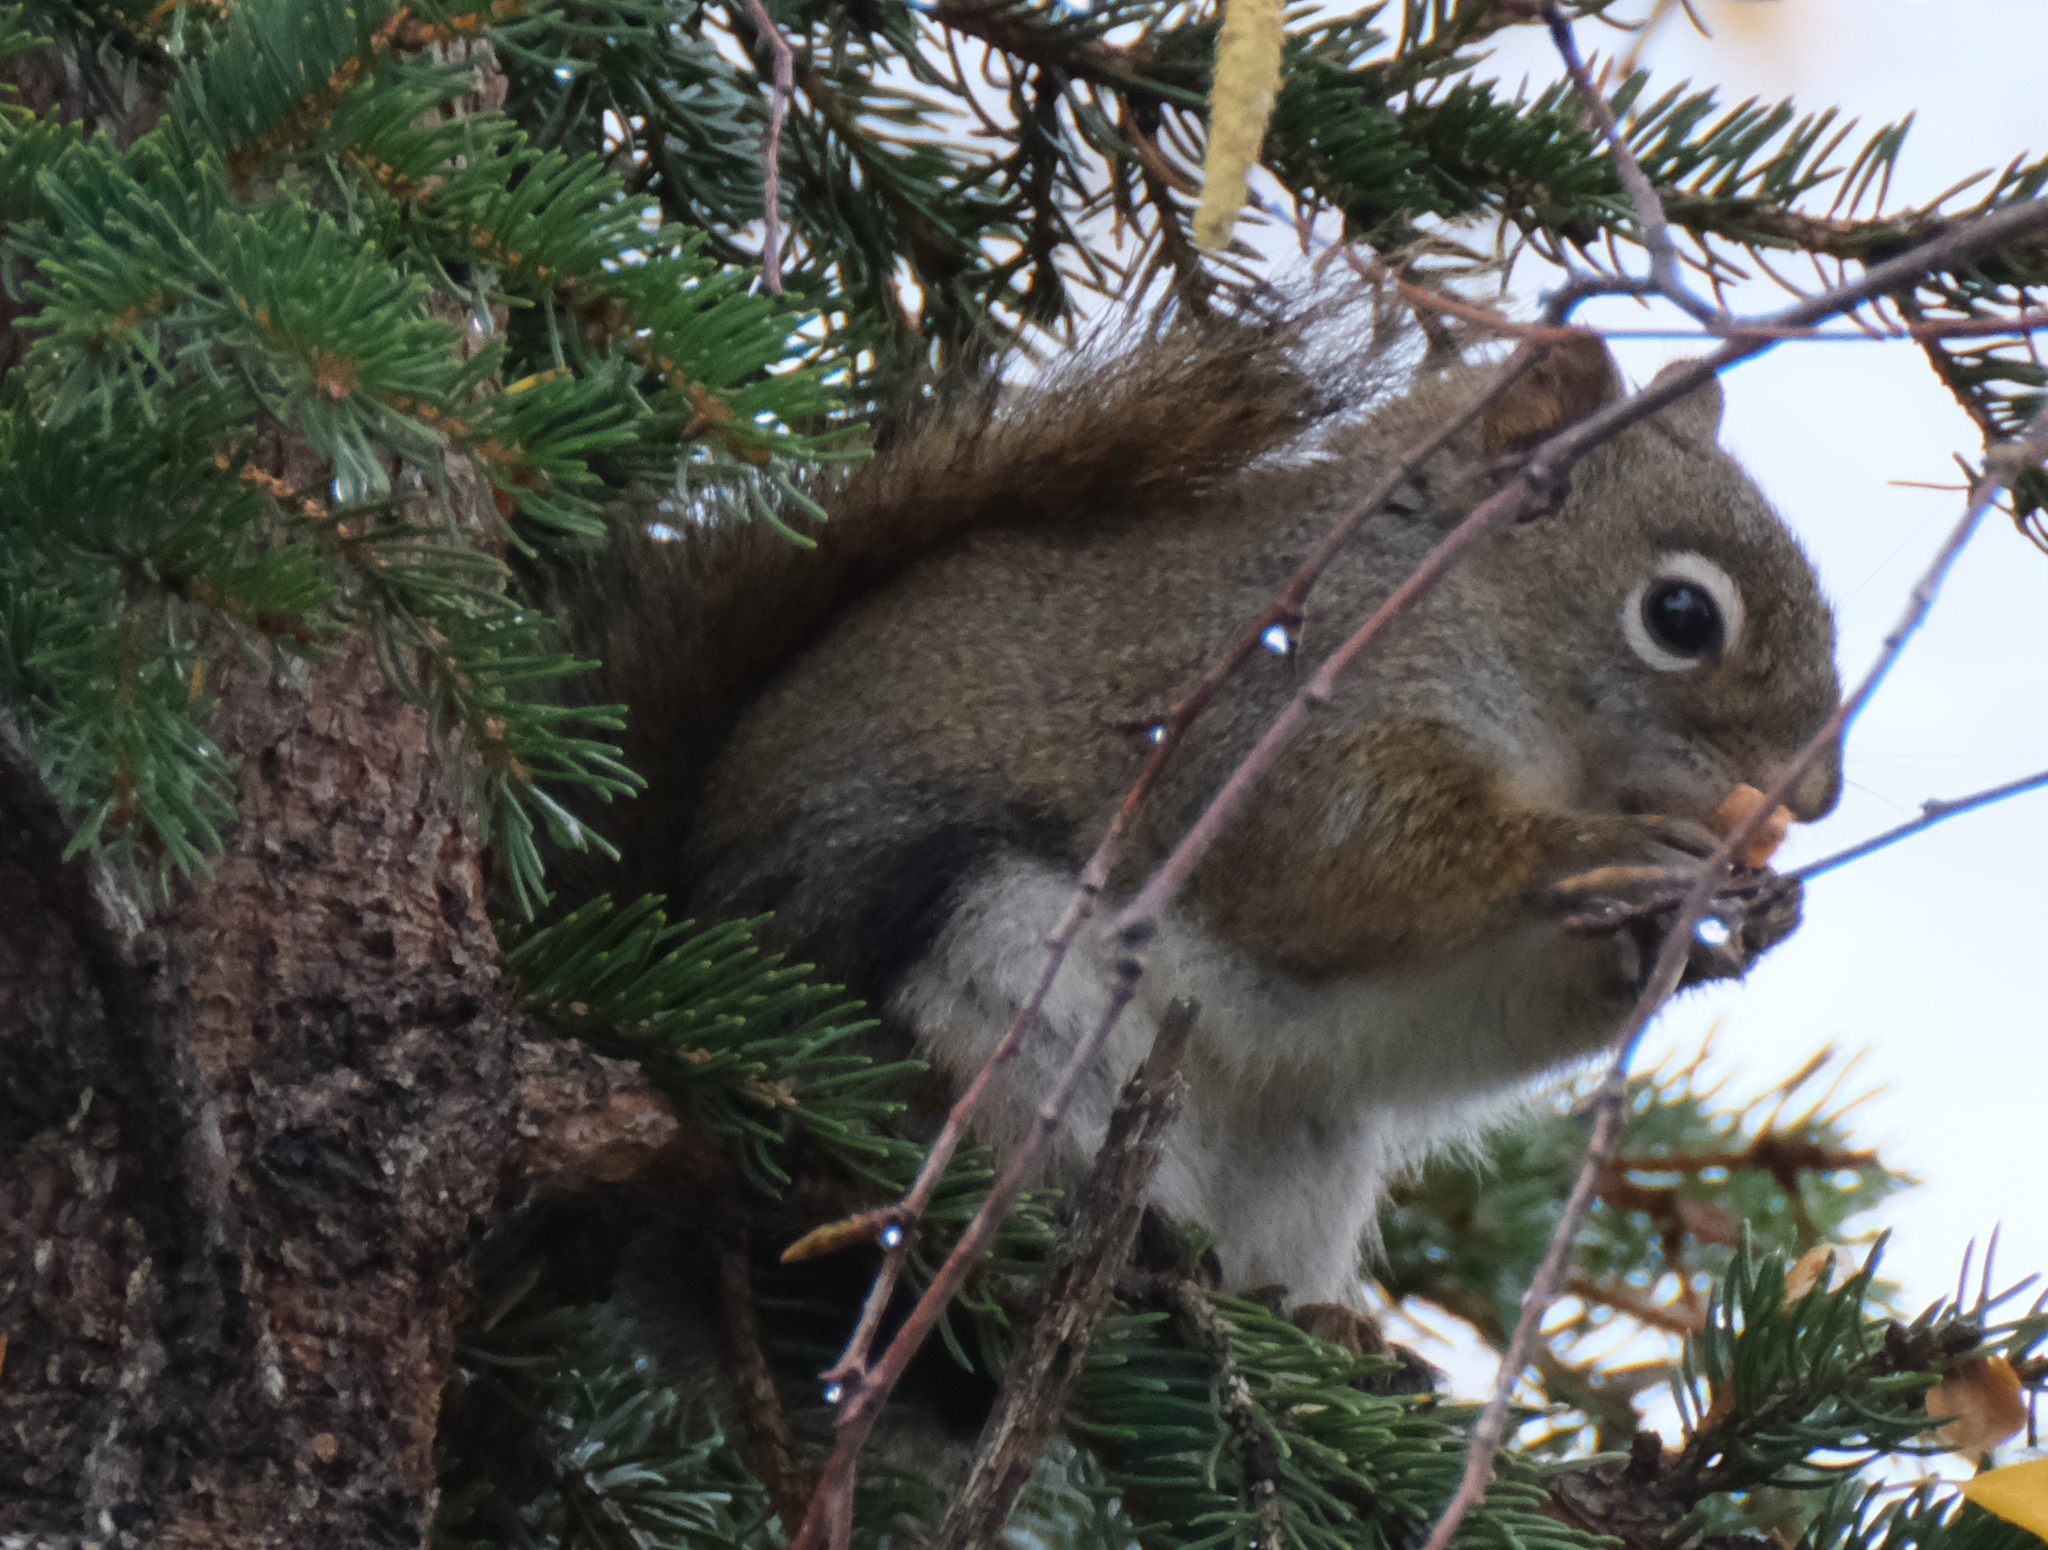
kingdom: Animalia
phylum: Chordata
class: Mammalia
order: Rodentia
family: Sciuridae
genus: Tamiasciurus
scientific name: Tamiasciurus hudsonicus
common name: Red squirrel
